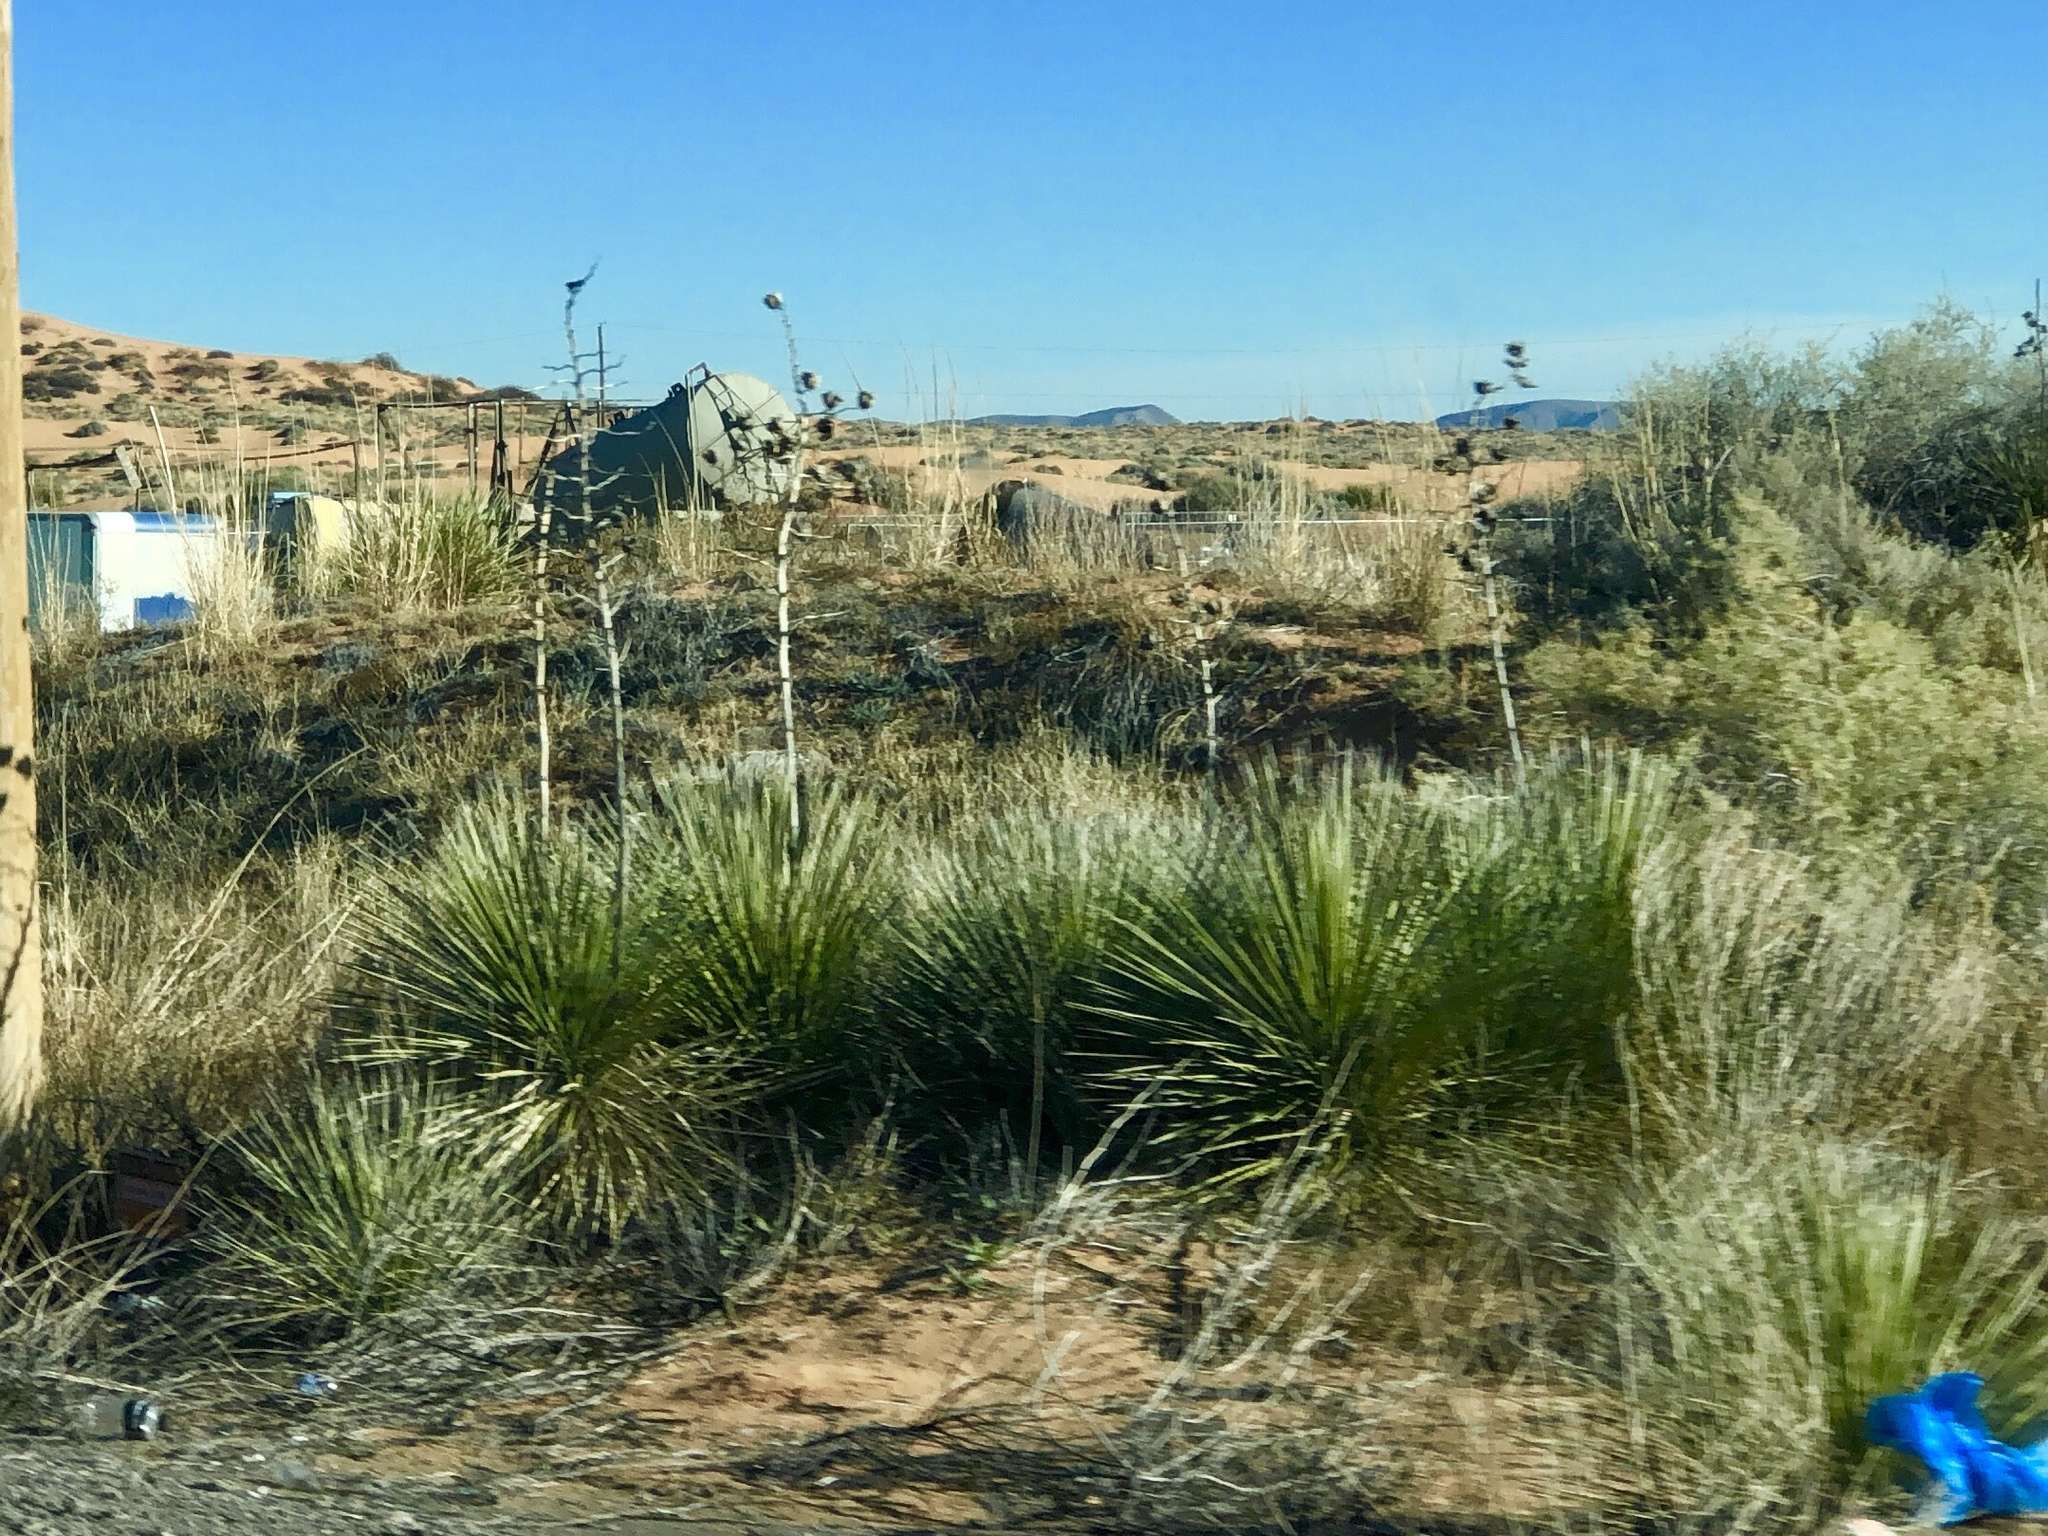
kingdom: Plantae
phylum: Tracheophyta
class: Liliopsida
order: Asparagales
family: Asparagaceae
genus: Yucca
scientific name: Yucca elata
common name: Palmella
